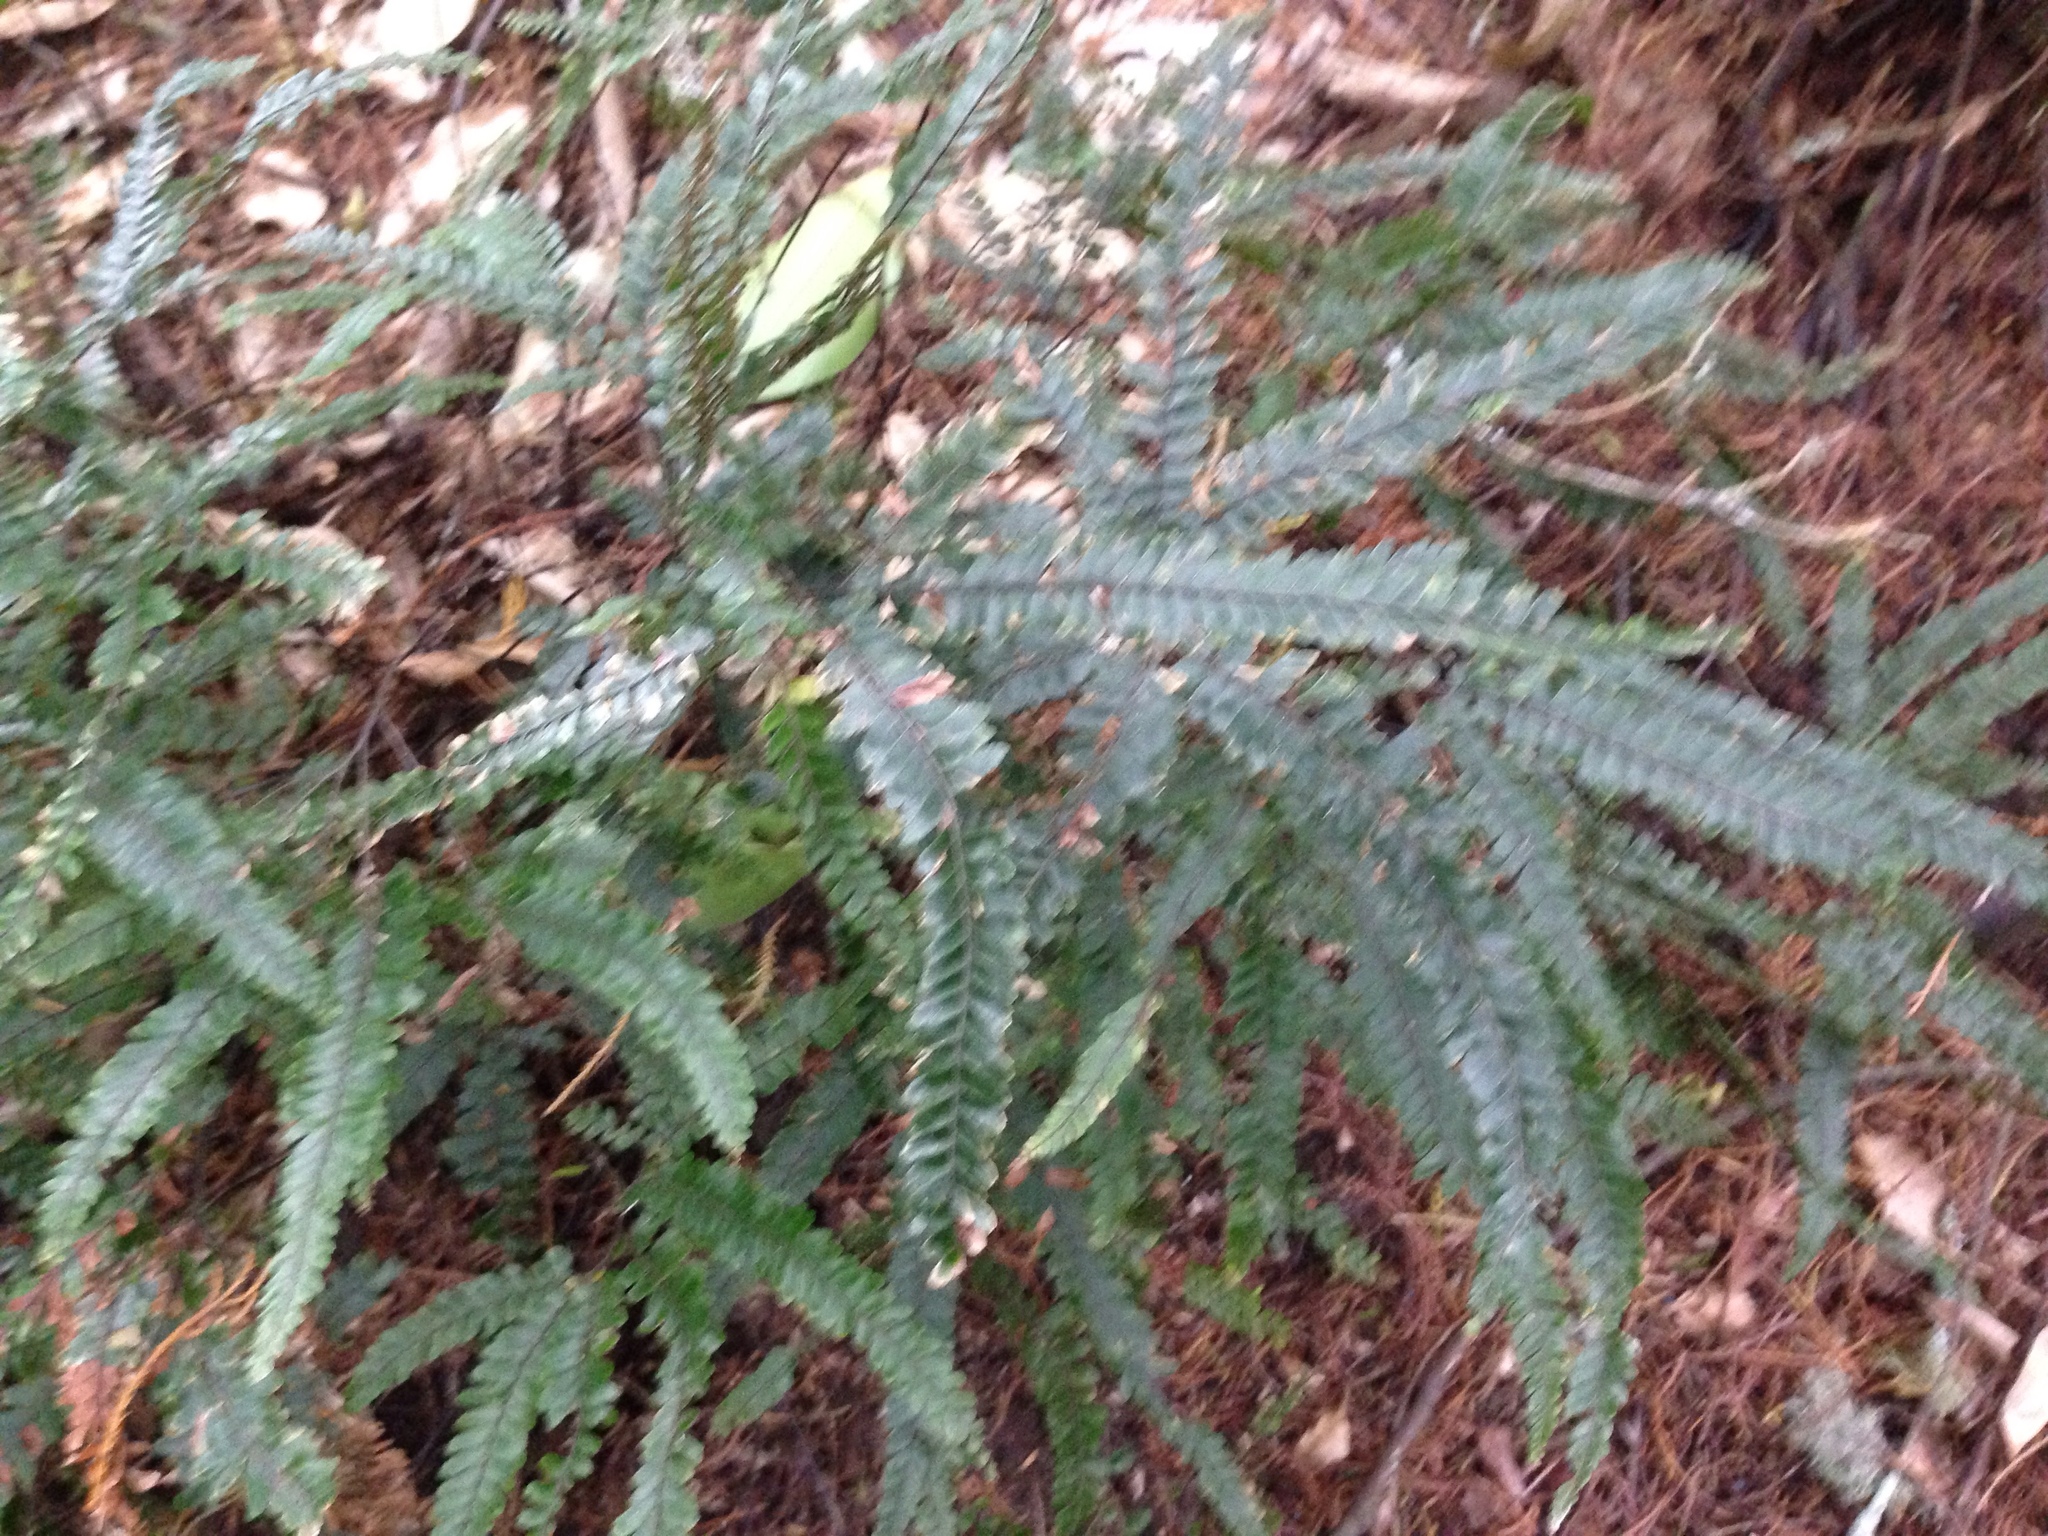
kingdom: Plantae
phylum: Tracheophyta
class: Polypodiopsida
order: Polypodiales
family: Pteridaceae
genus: Adiantum
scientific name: Adiantum hispidulum
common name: Rough maidenhair
